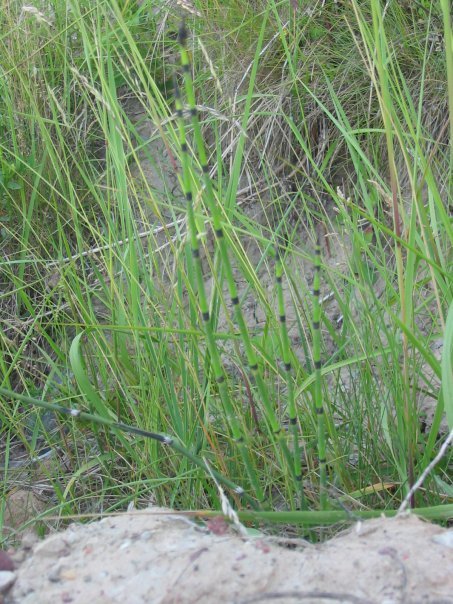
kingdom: Plantae
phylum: Tracheophyta
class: Polypodiopsida
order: Equisetales
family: Equisetaceae
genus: Equisetum
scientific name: Equisetum hyemale
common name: Rough horsetail
